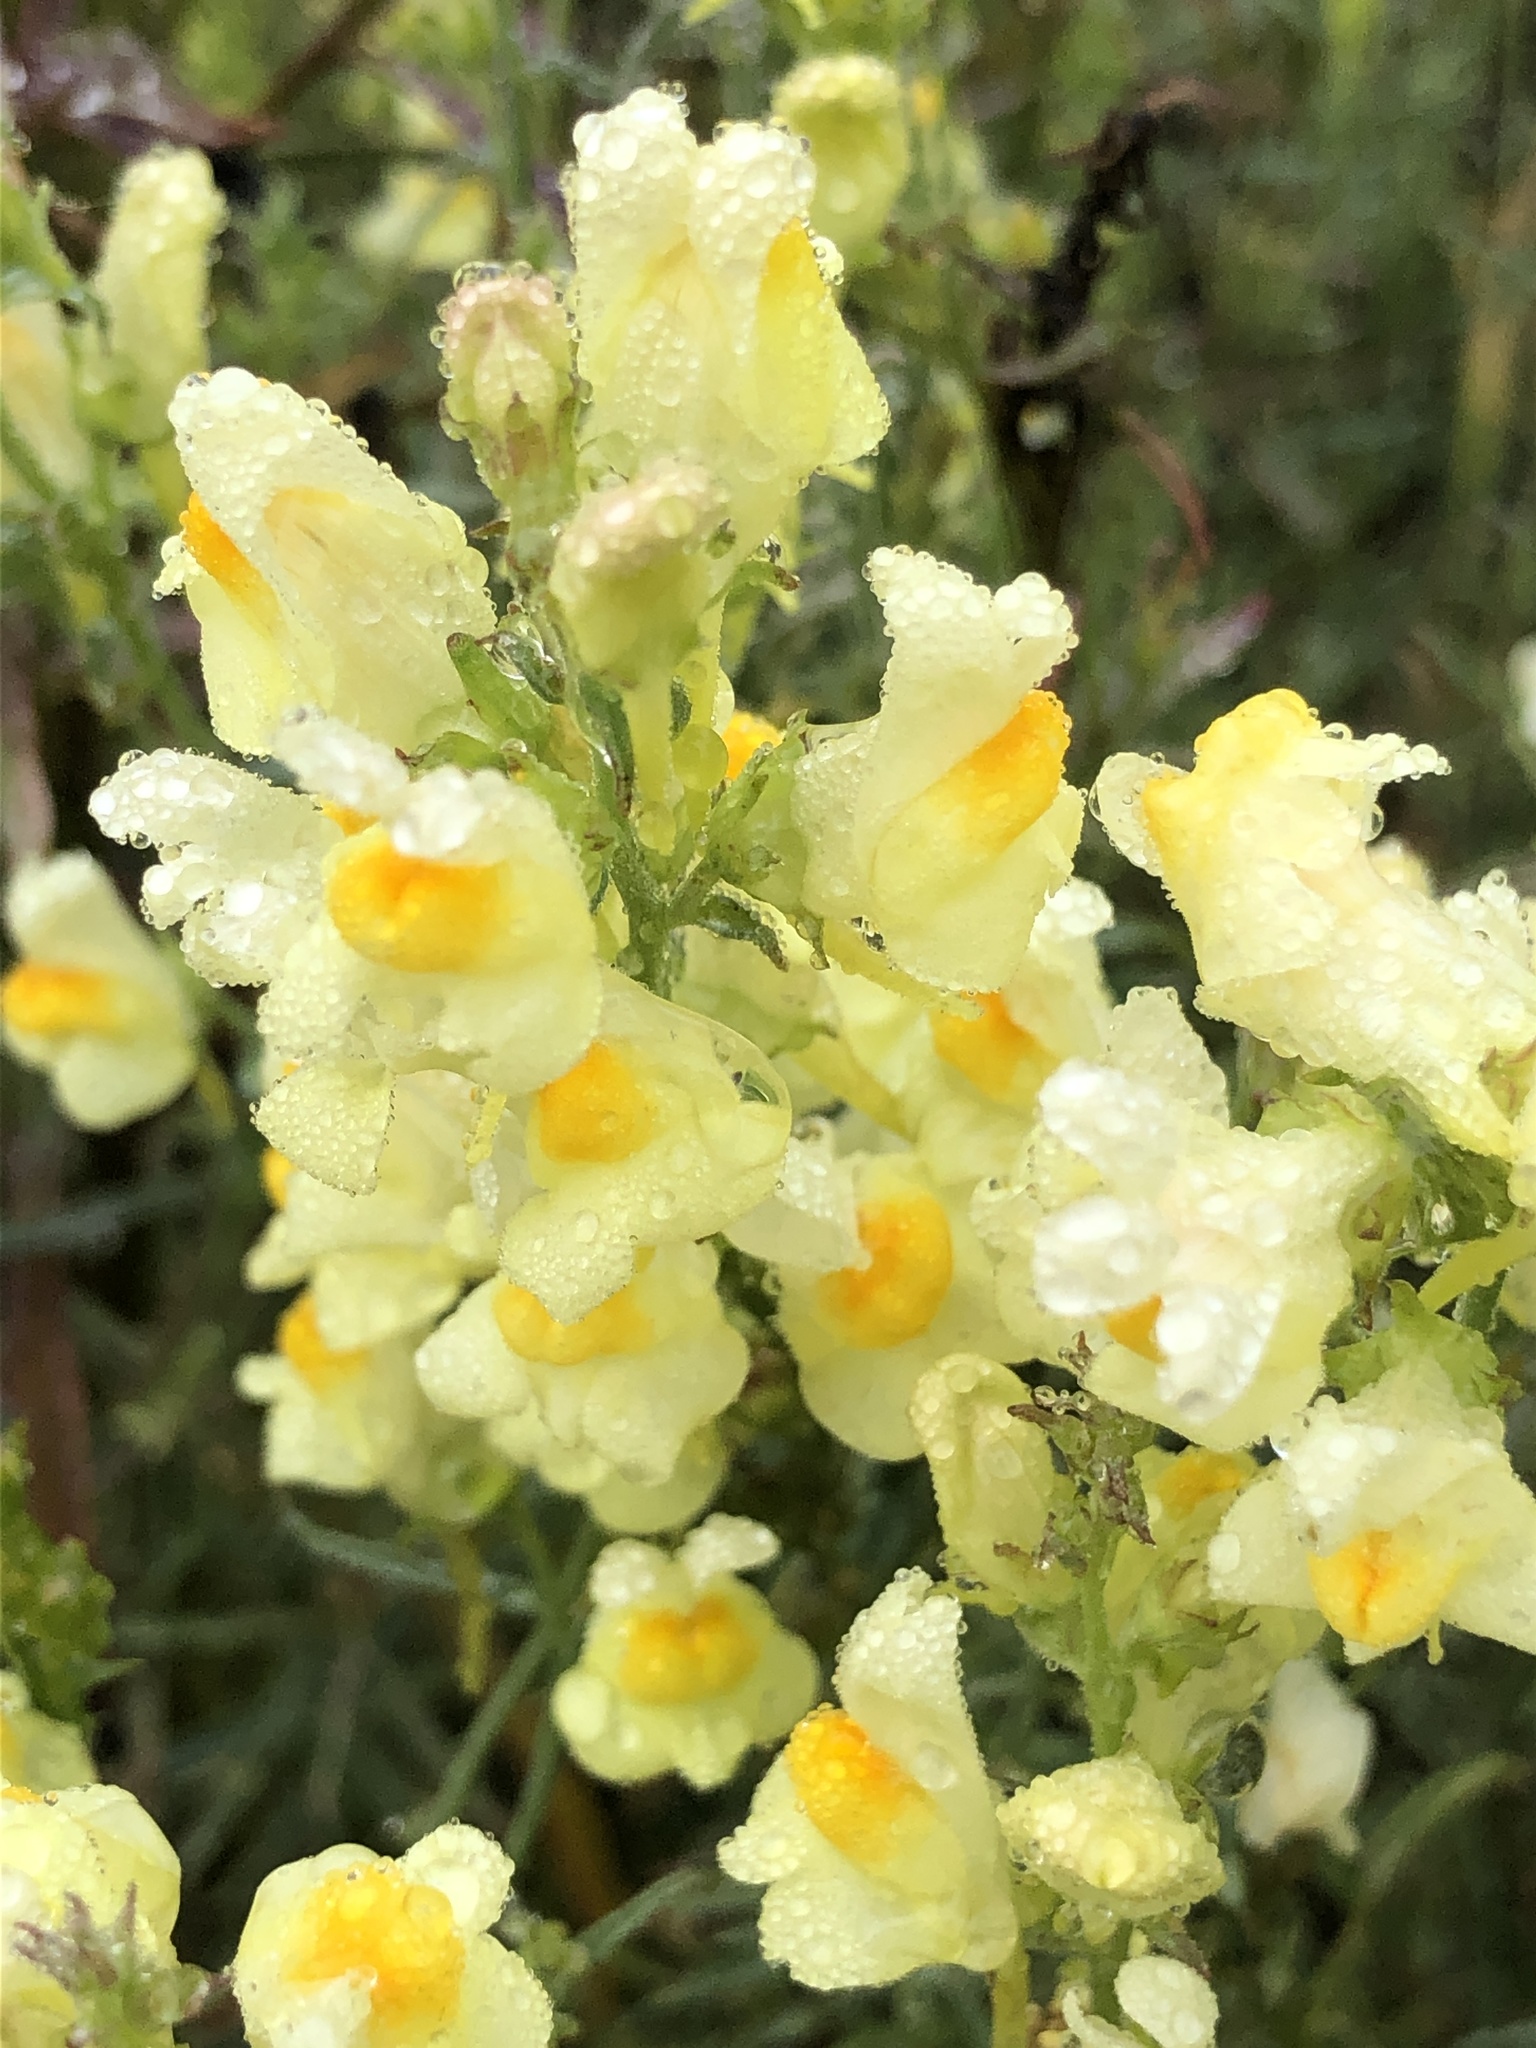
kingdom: Plantae
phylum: Tracheophyta
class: Magnoliopsida
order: Lamiales
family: Plantaginaceae
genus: Linaria
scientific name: Linaria vulgaris
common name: Butter and eggs
